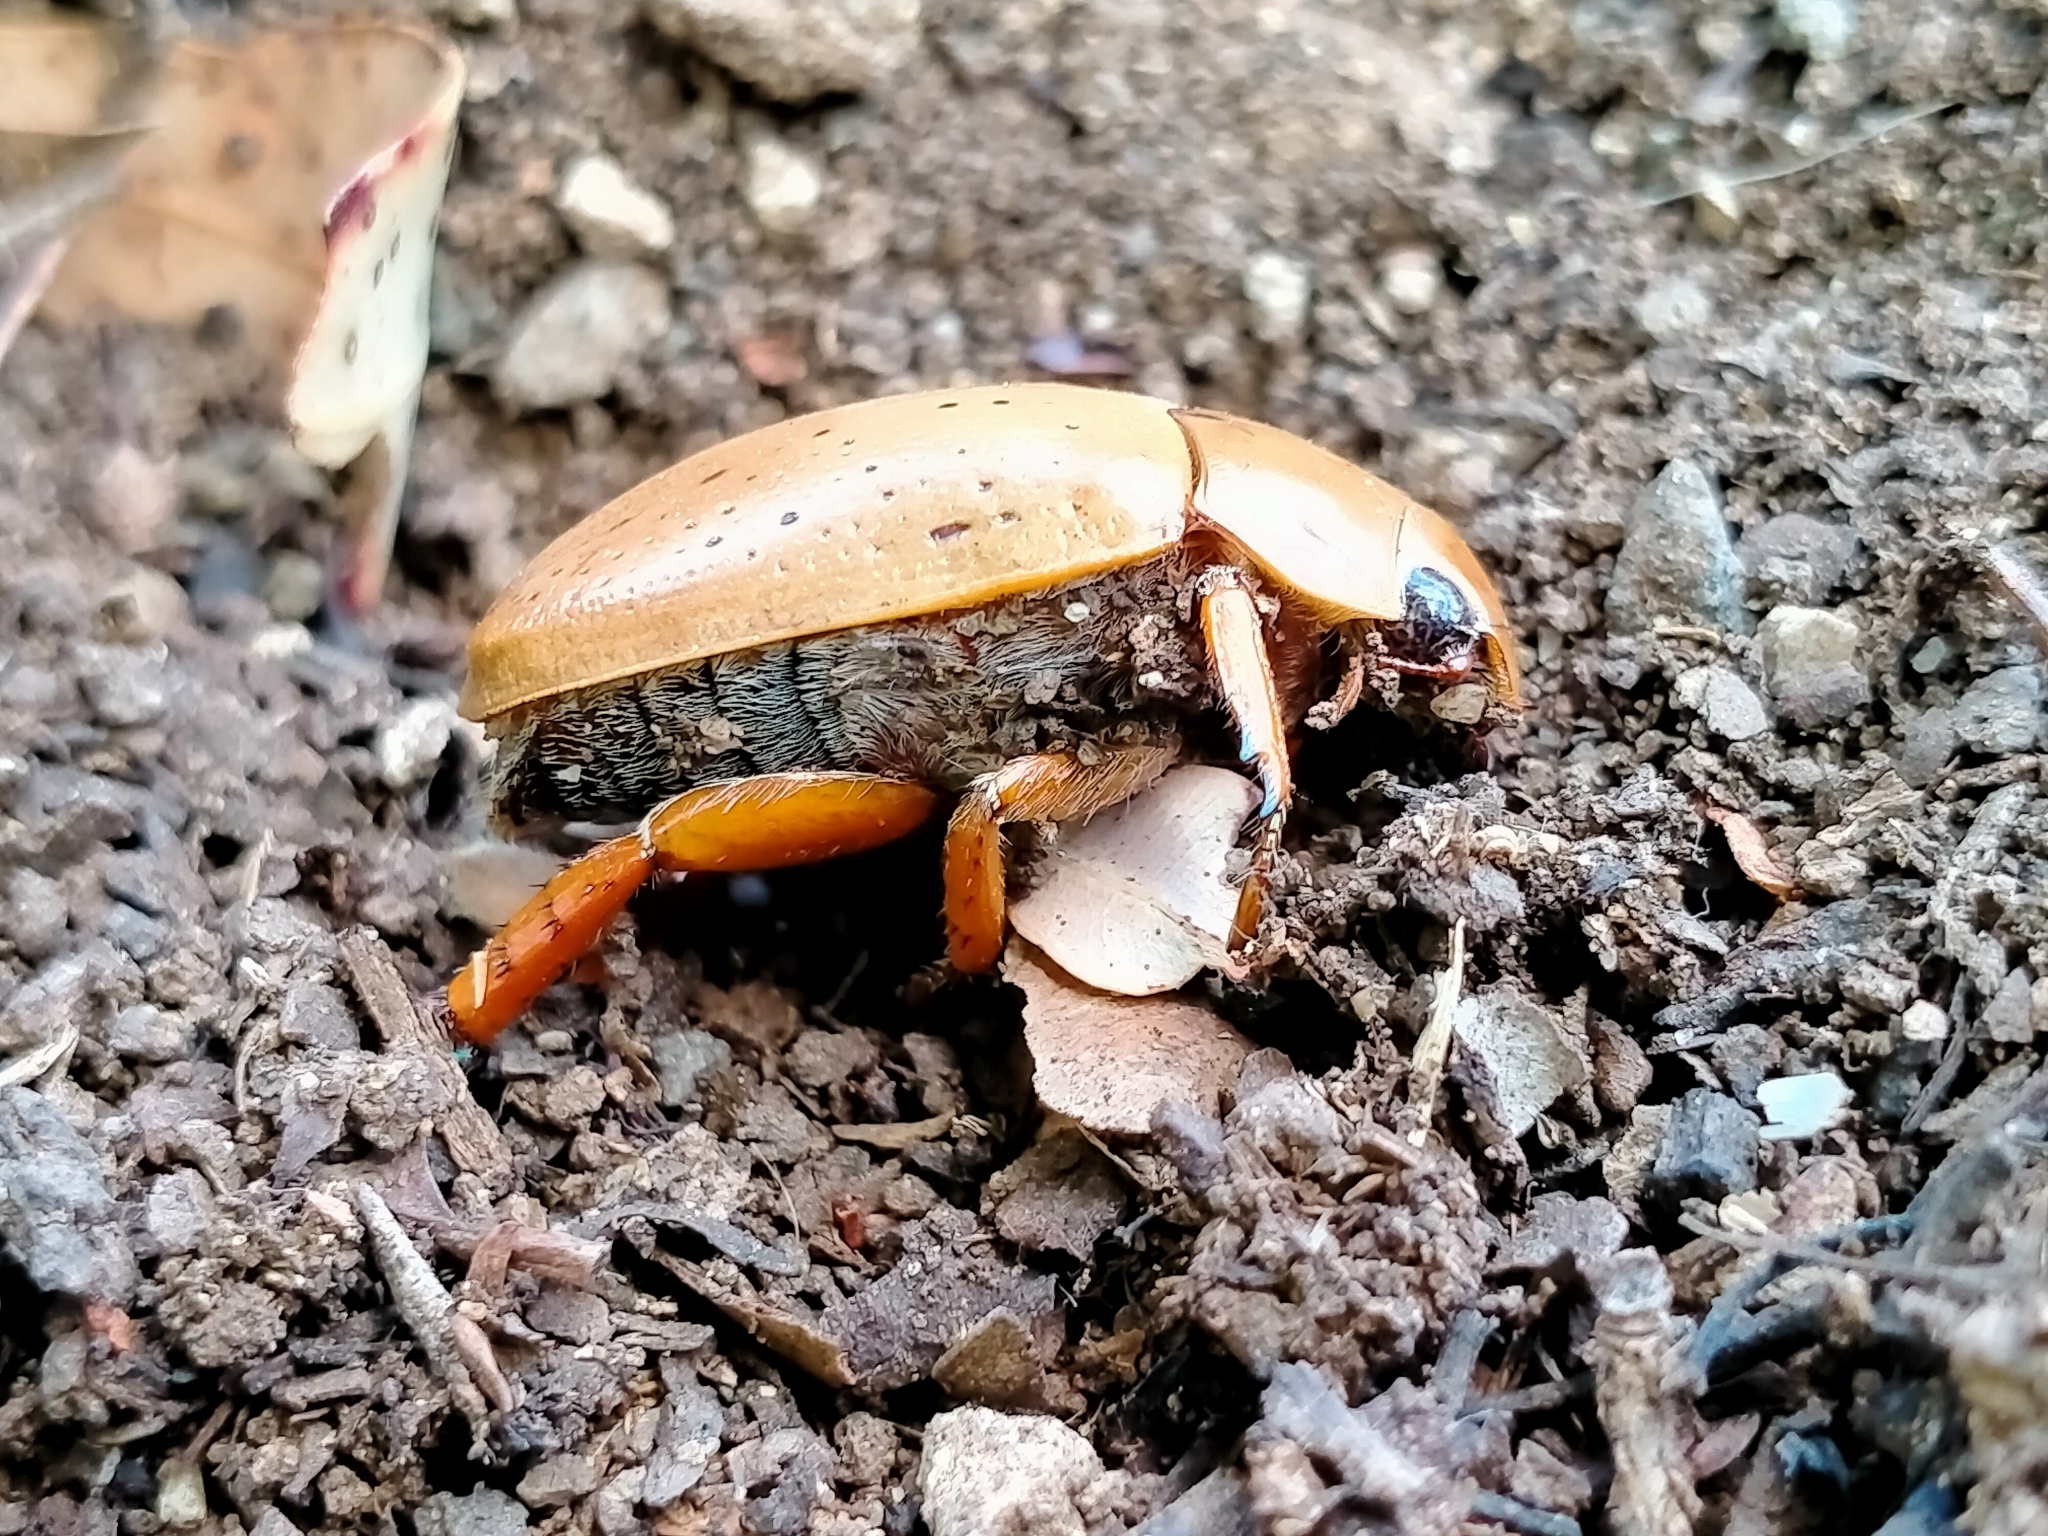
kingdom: Animalia
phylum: Arthropoda
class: Insecta
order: Coleoptera
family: Scarabaeidae
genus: Anoplognathus
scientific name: Anoplognathus porosus
